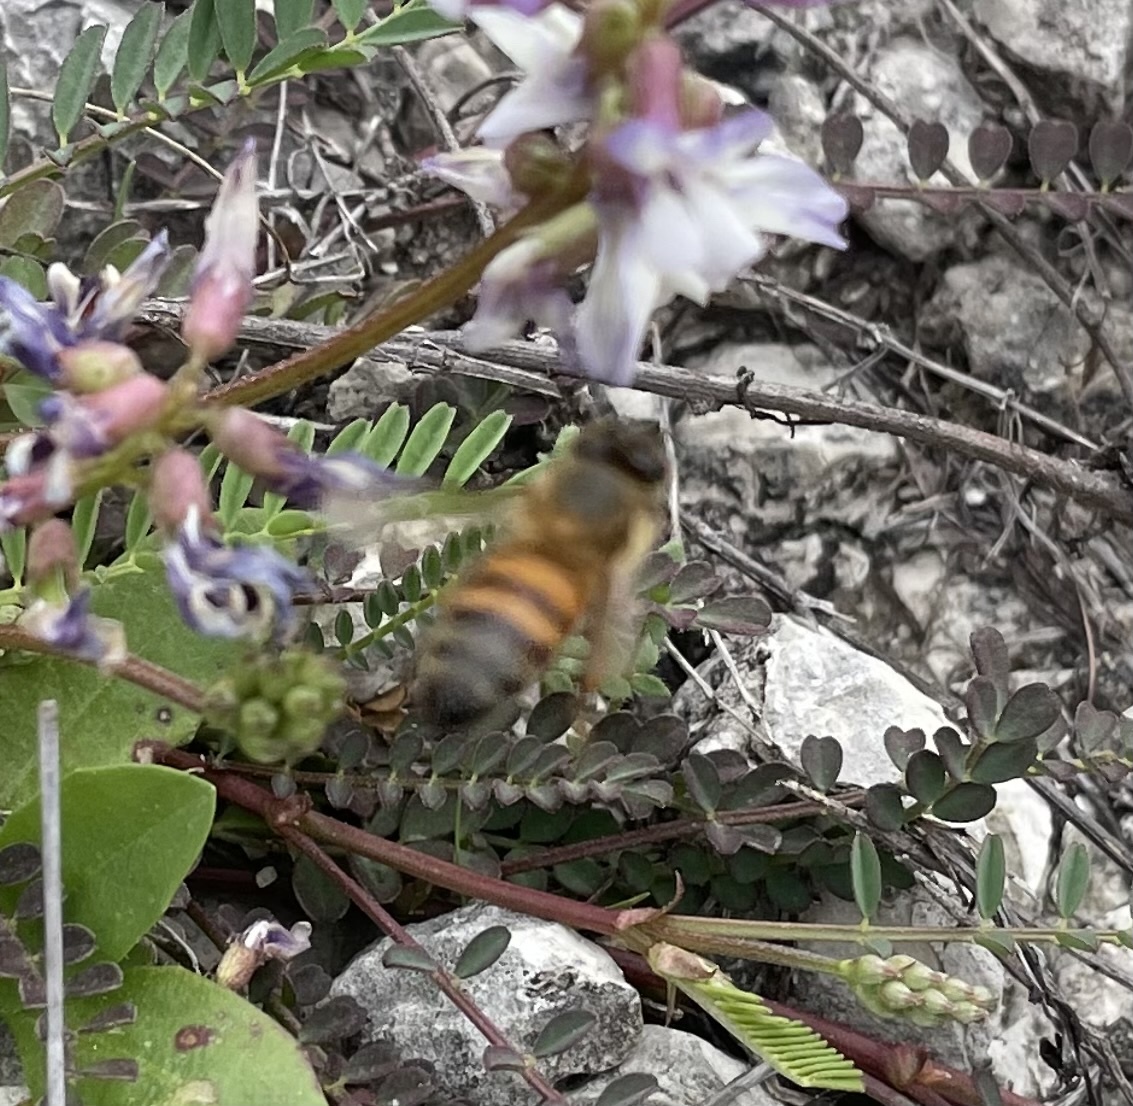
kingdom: Animalia
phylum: Arthropoda
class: Insecta
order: Hymenoptera
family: Apidae
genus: Apis
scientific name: Apis mellifera
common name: Honey bee
